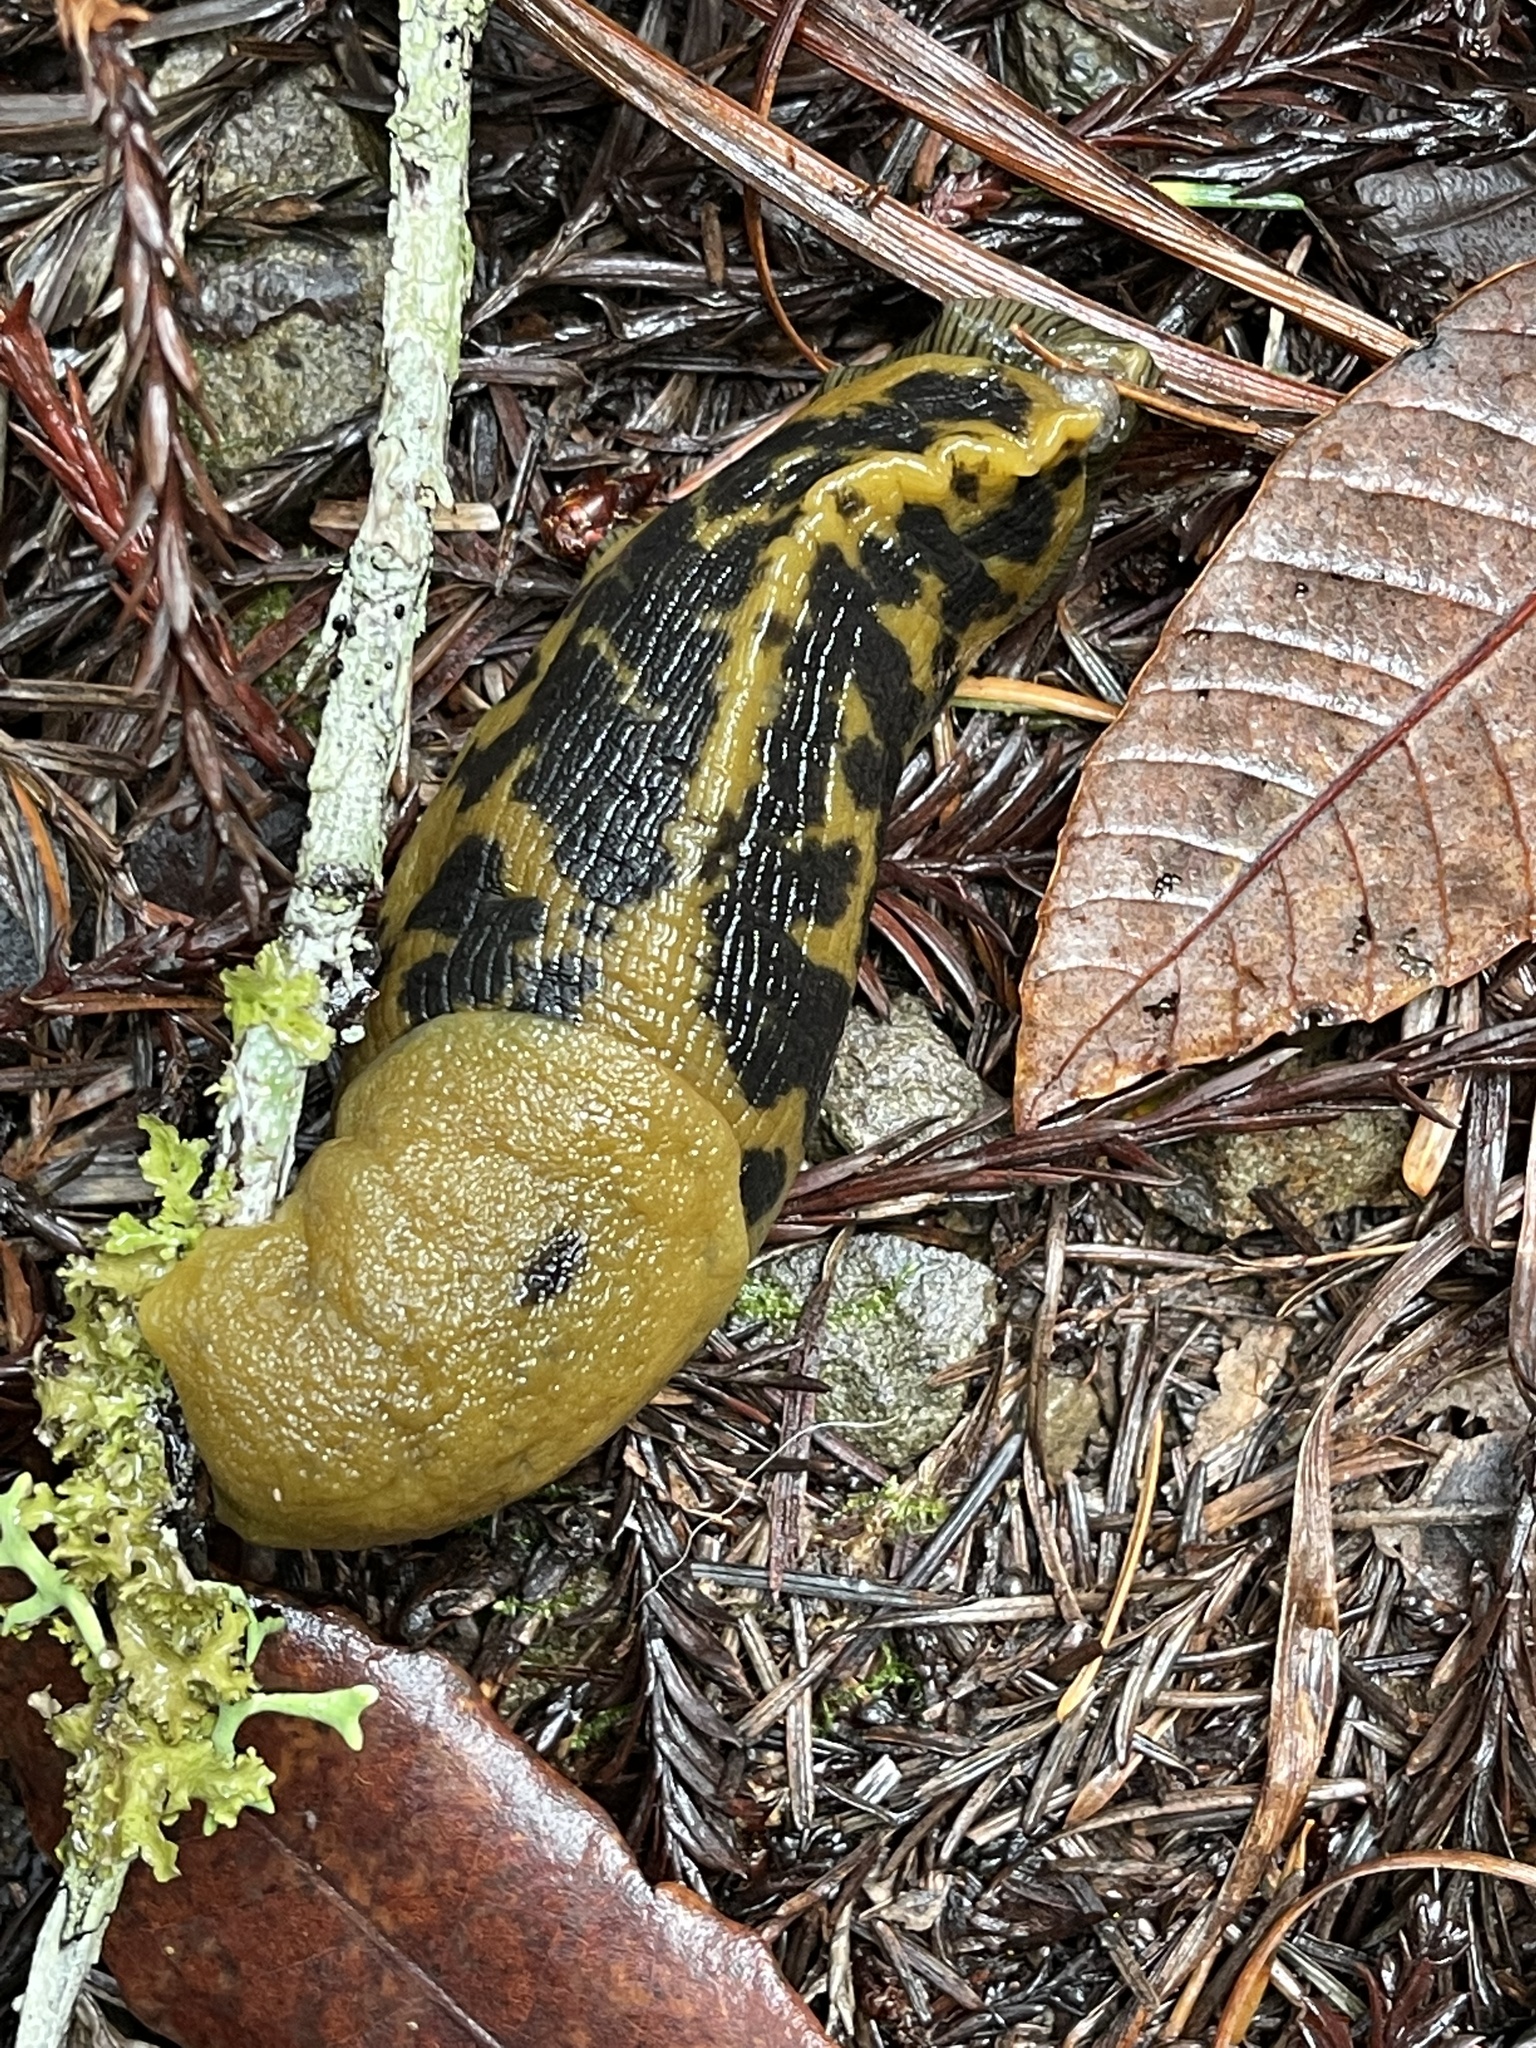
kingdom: Animalia
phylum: Mollusca
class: Gastropoda
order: Stylommatophora
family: Ariolimacidae
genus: Ariolimax
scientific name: Ariolimax buttoni
